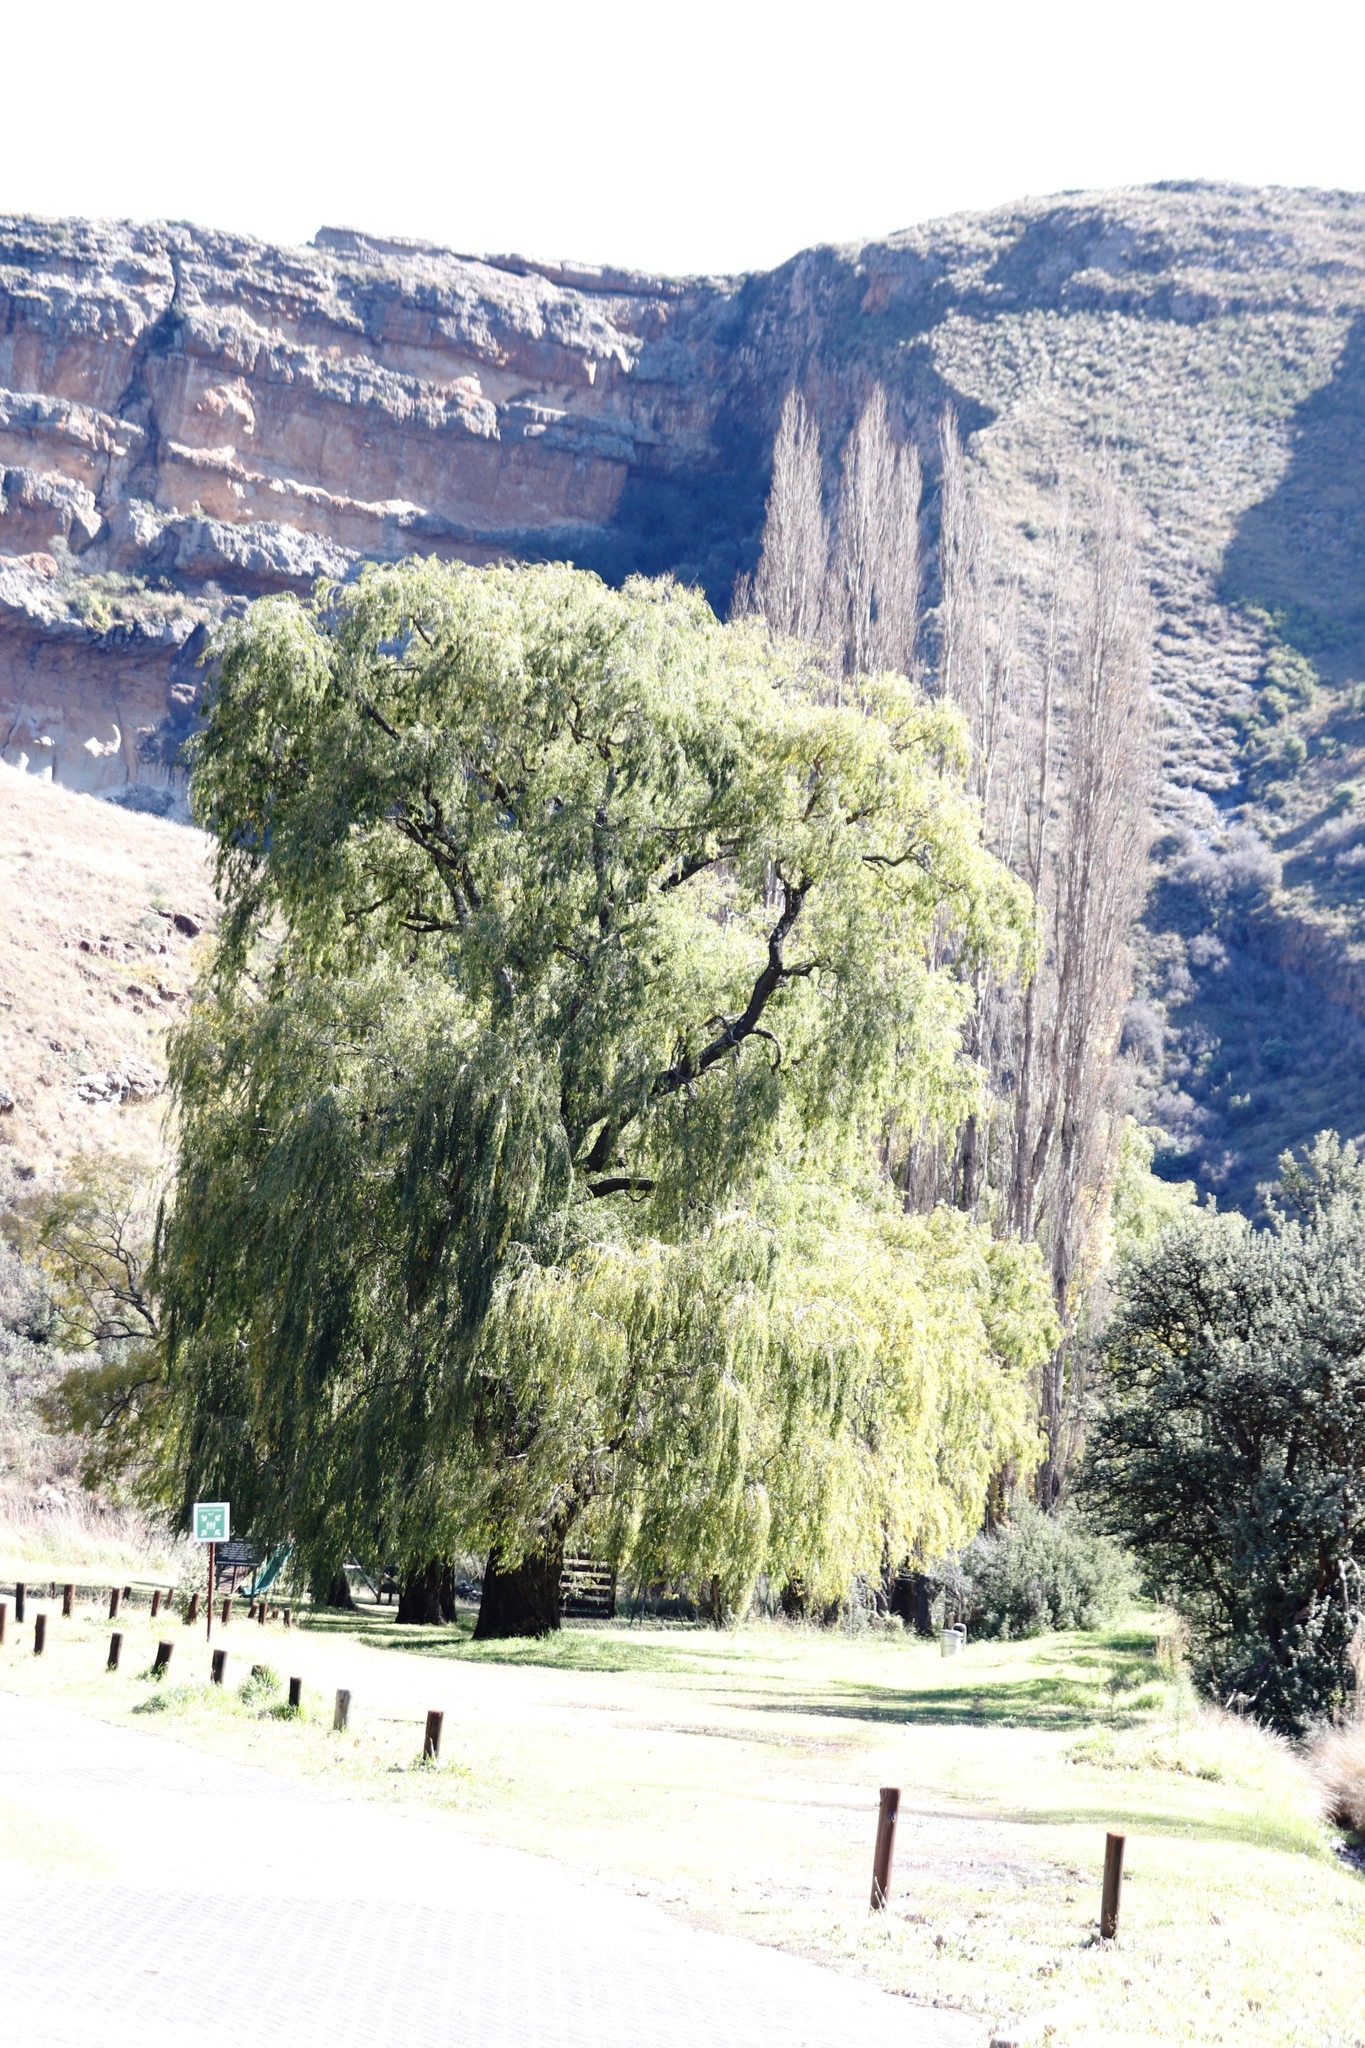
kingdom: Plantae
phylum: Tracheophyta
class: Magnoliopsida
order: Malpighiales
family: Salicaceae
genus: Salix
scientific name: Salix babylonica
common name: Weeping willow
